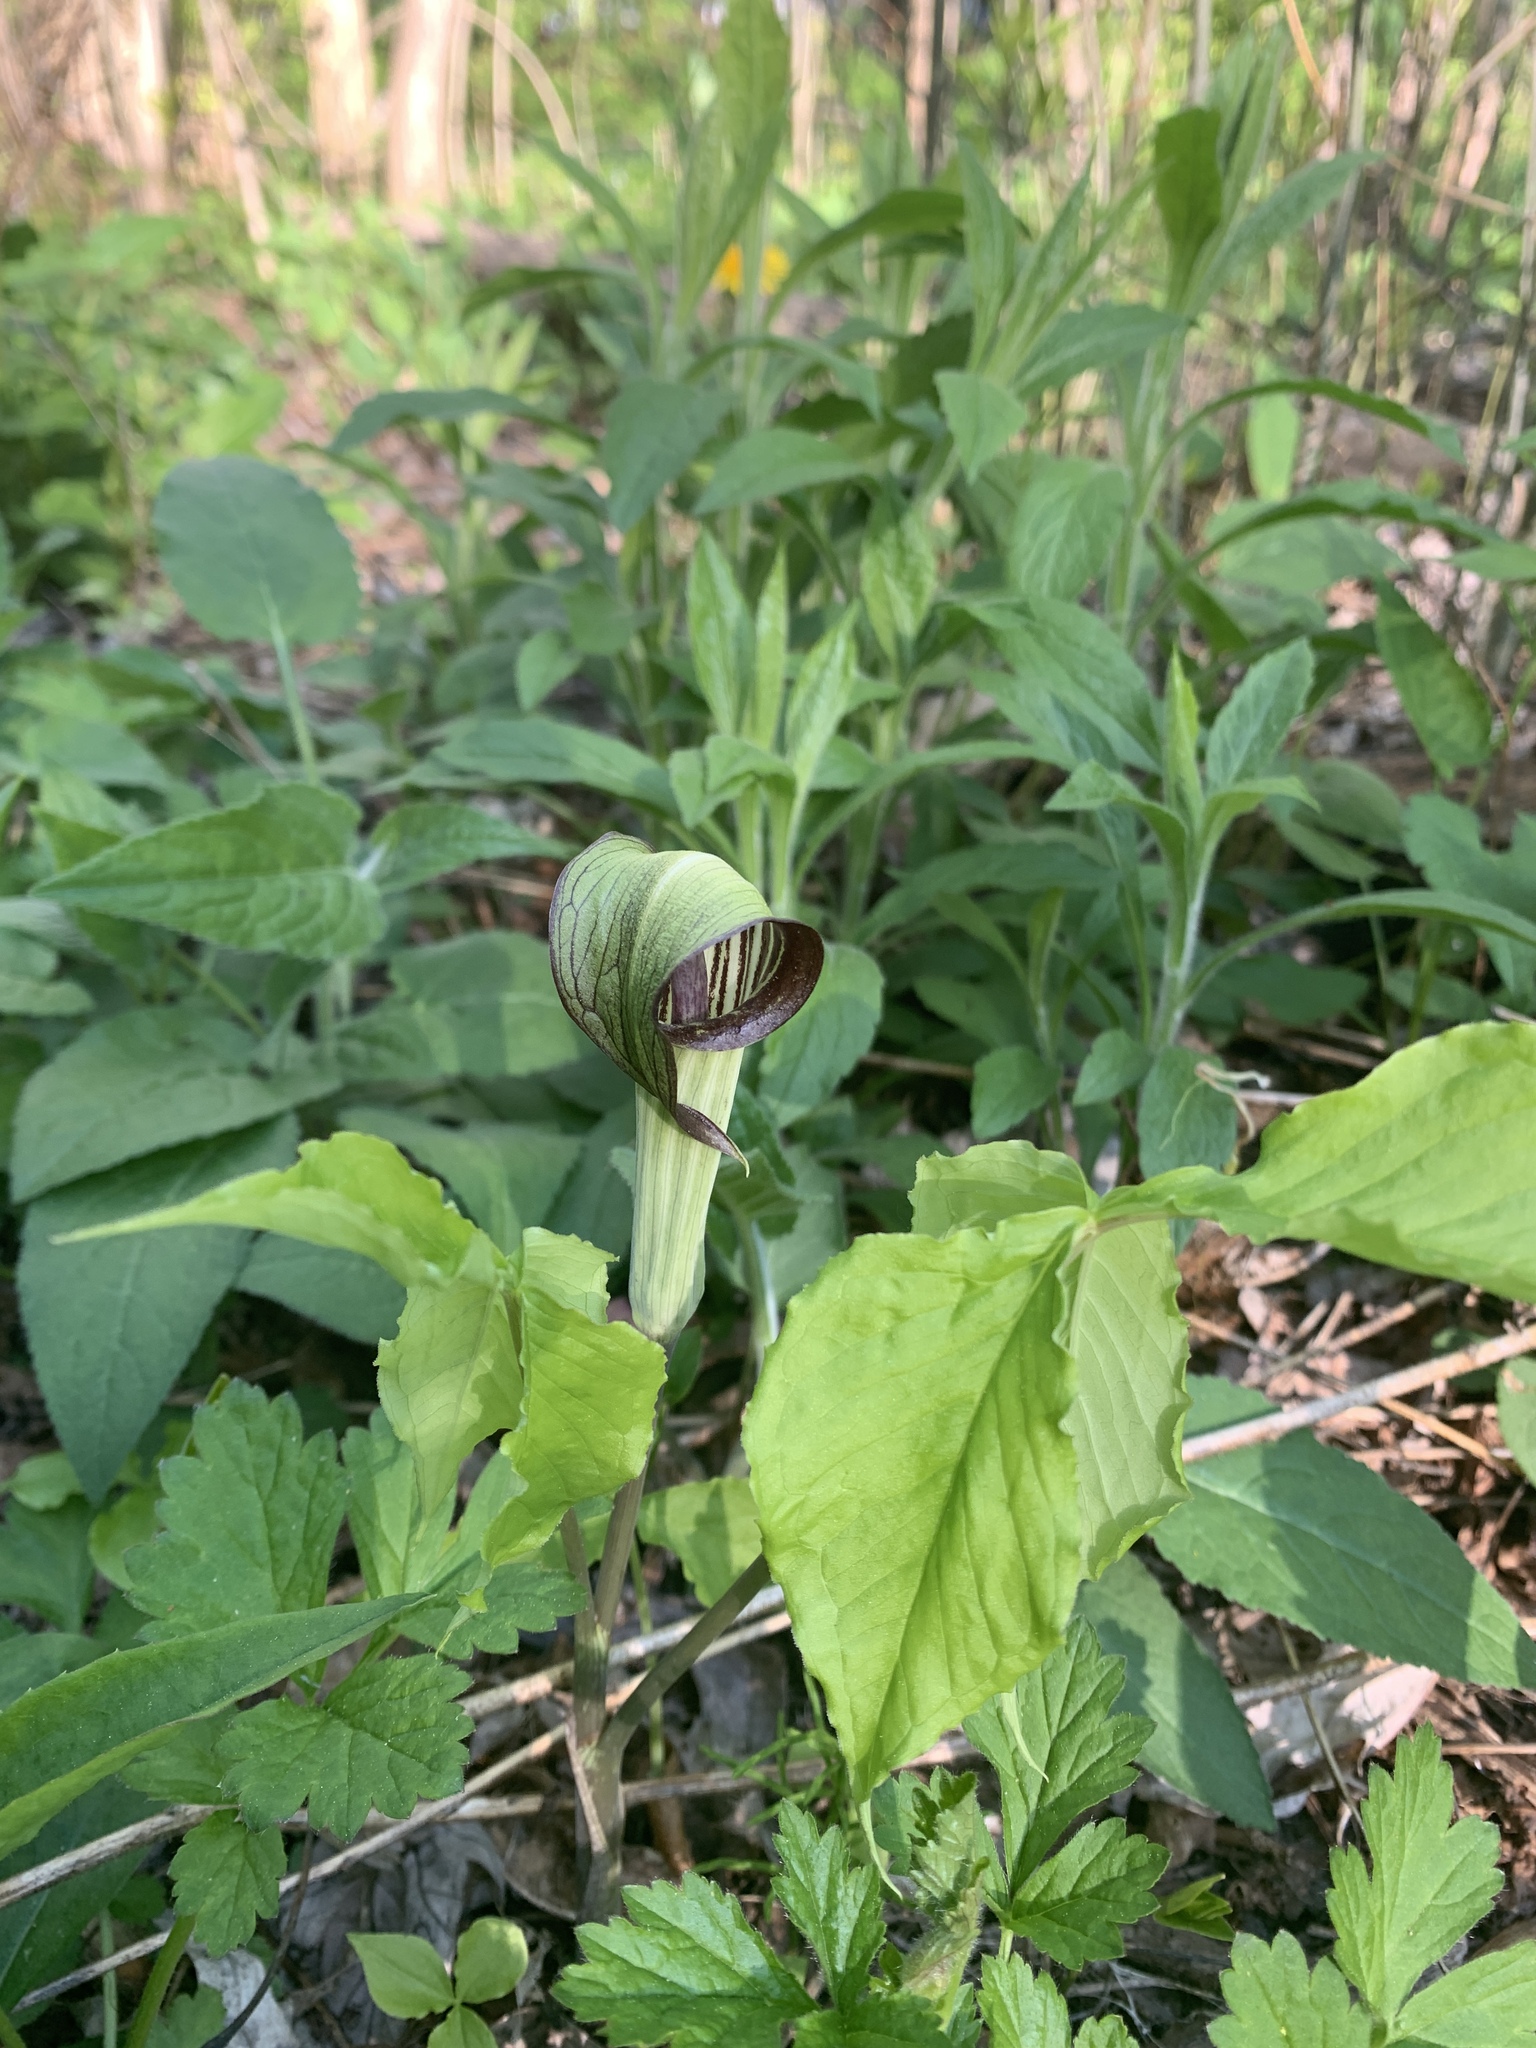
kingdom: Plantae
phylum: Tracheophyta
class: Liliopsida
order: Alismatales
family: Araceae
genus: Arisaema
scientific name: Arisaema triphyllum
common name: Jack-in-the-pulpit
